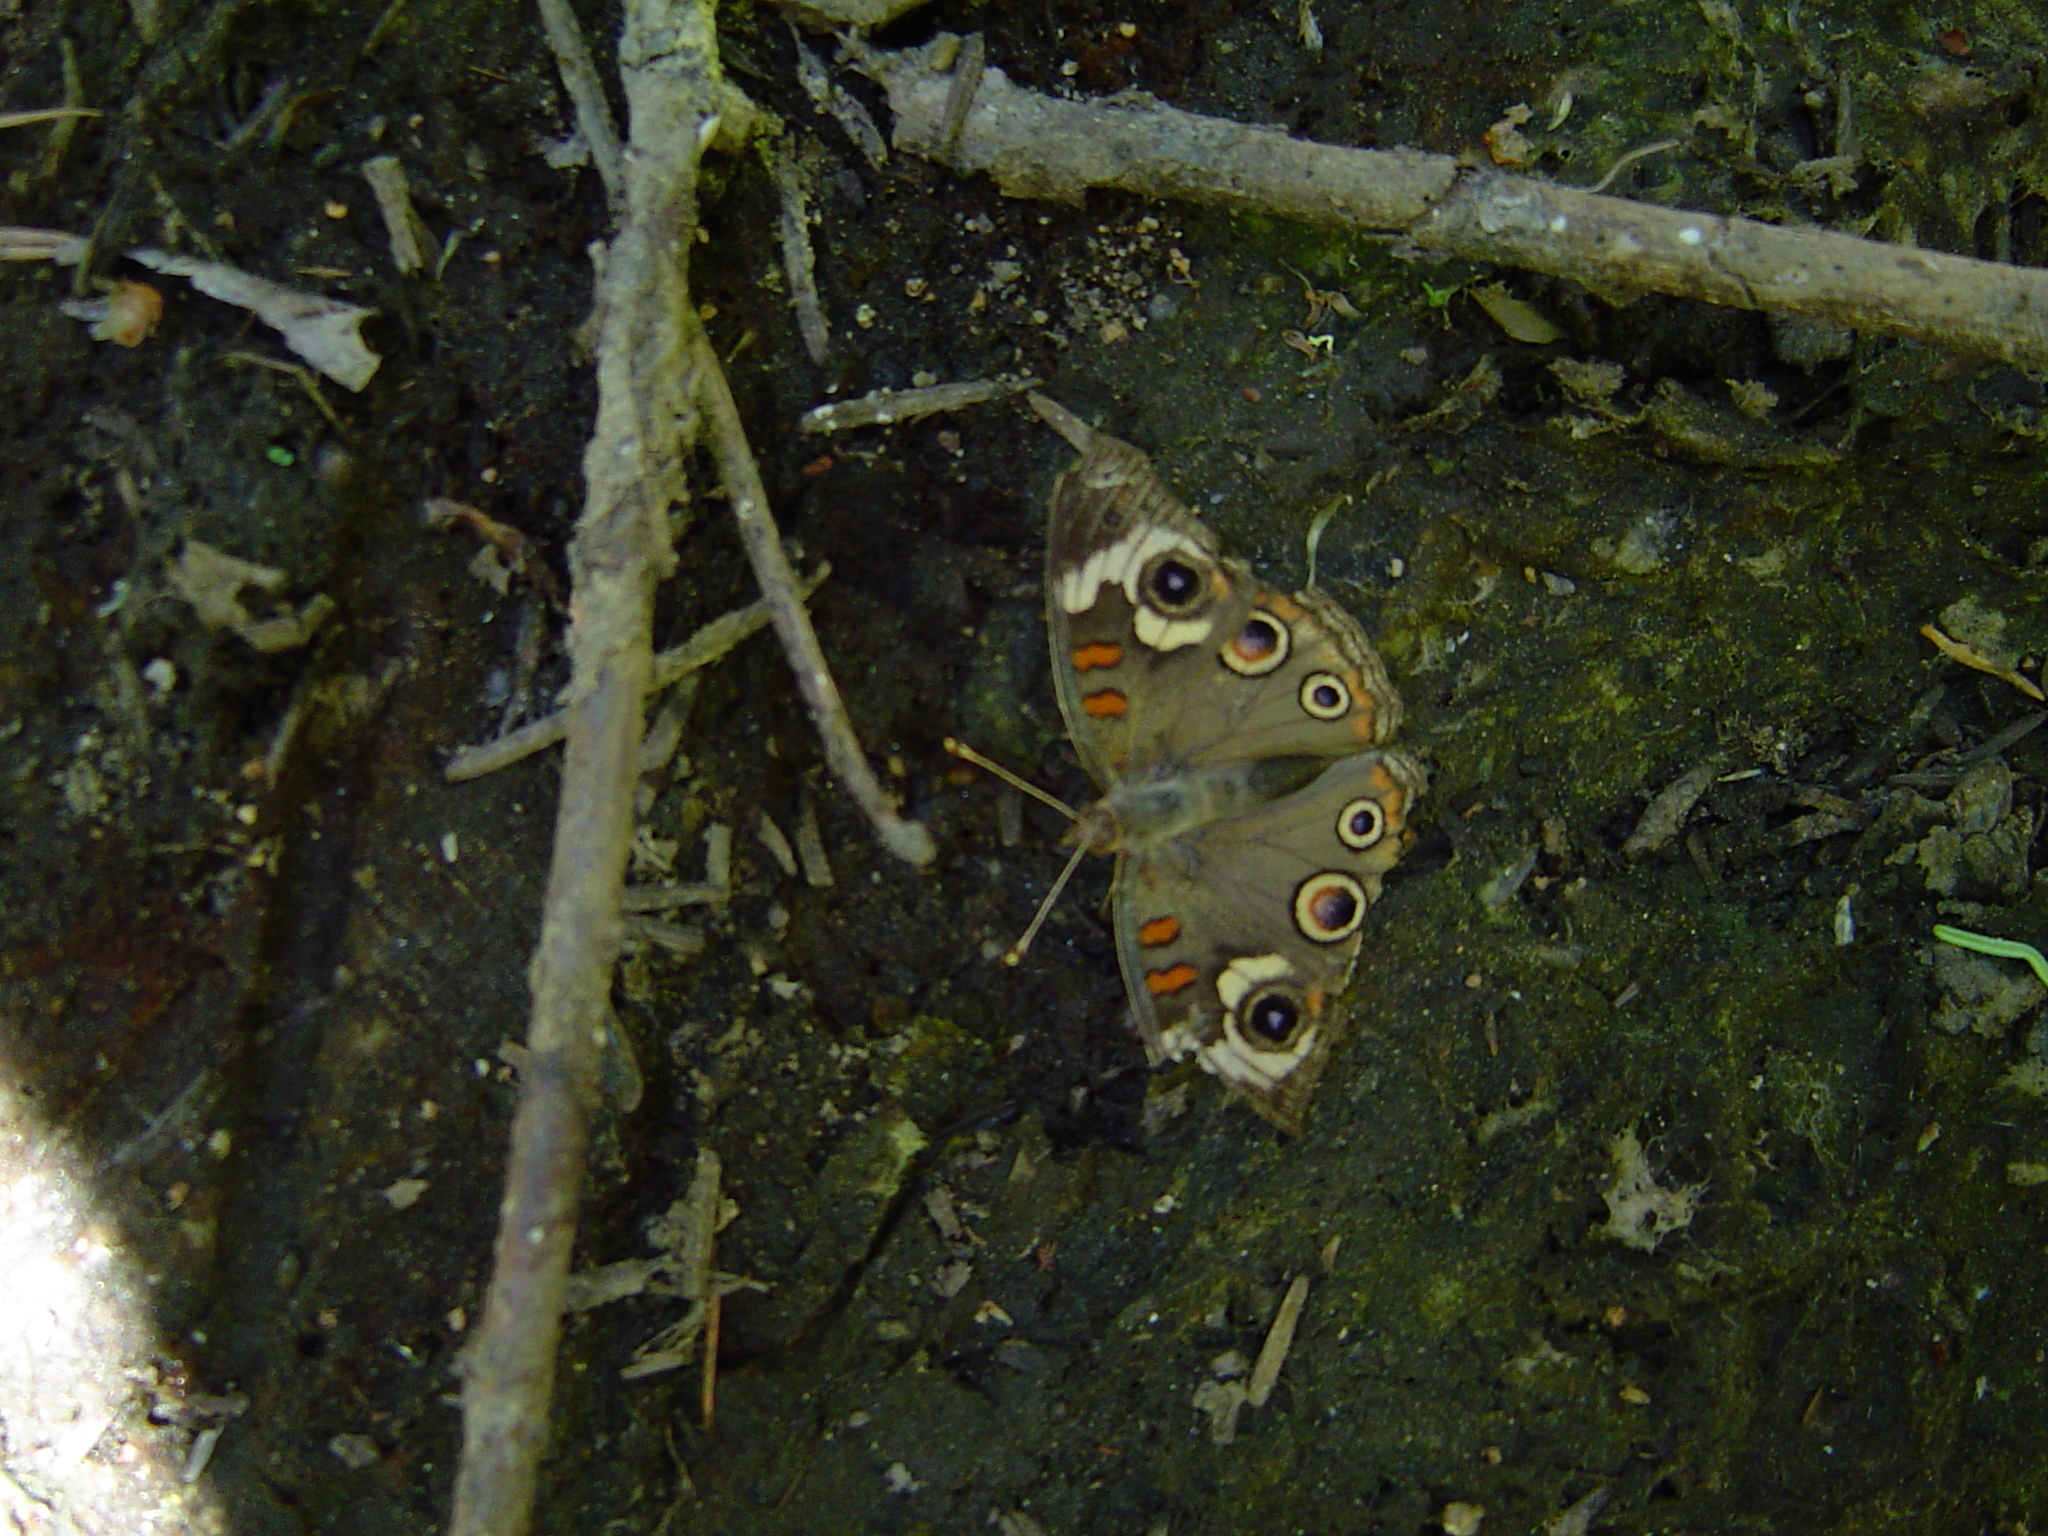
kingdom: Animalia
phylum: Arthropoda
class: Insecta
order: Lepidoptera
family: Nymphalidae
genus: Junonia
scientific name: Junonia grisea
